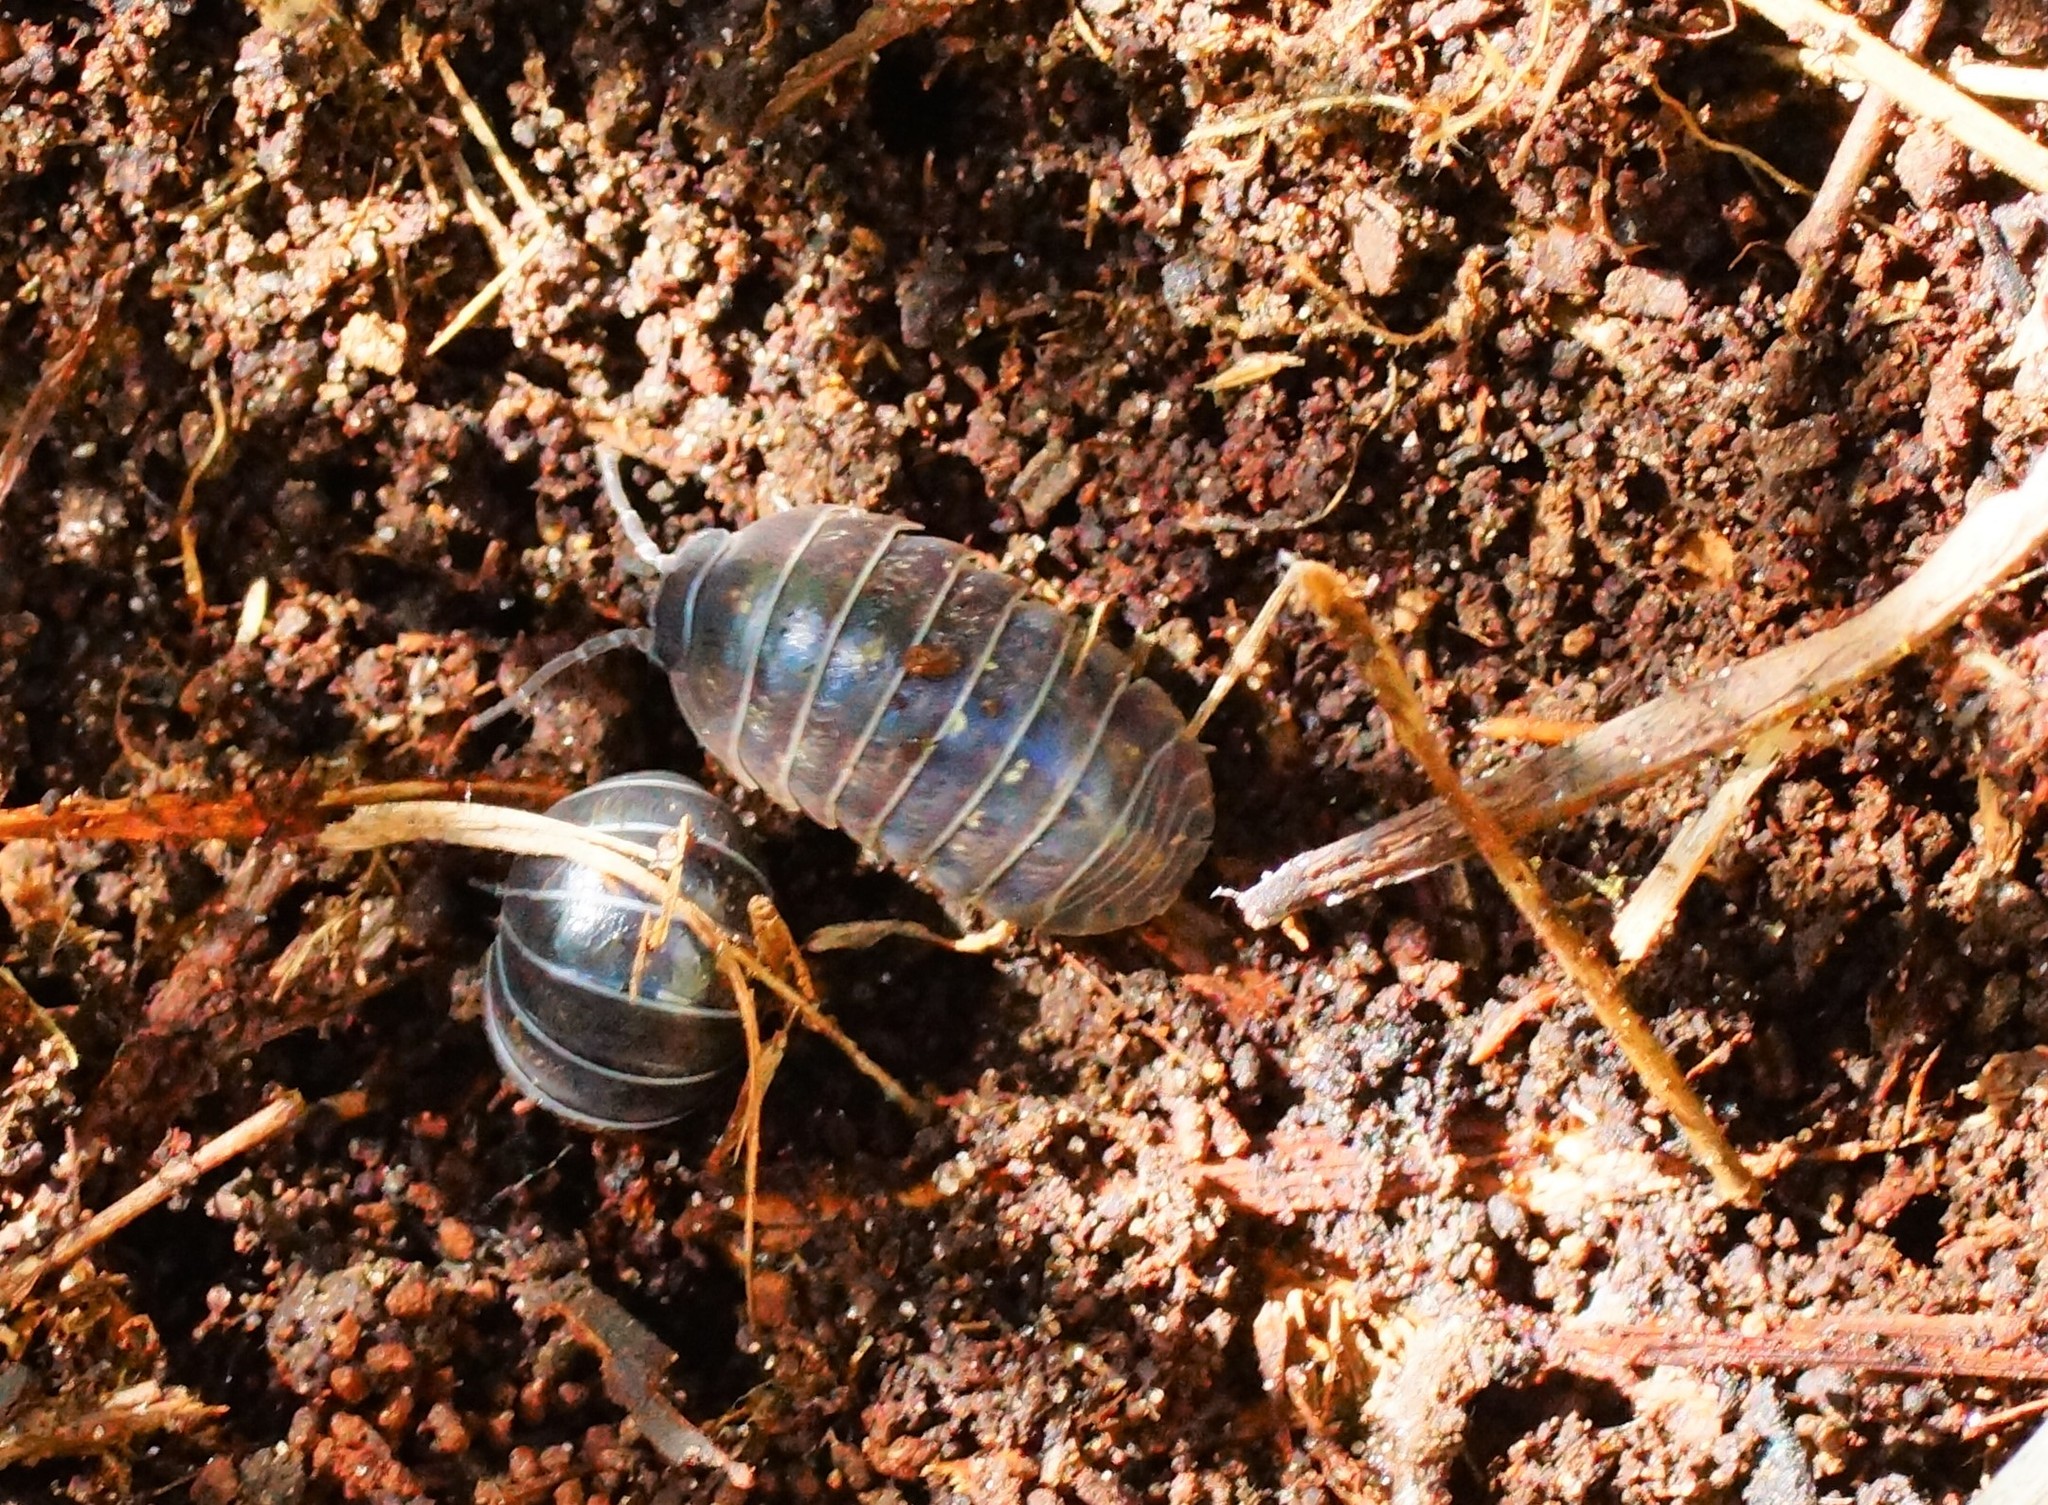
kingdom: Animalia
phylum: Arthropoda
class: Malacostraca
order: Isopoda
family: Armadillidiidae
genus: Armadillidium
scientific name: Armadillidium vulgare
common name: Common pill woodlouse
